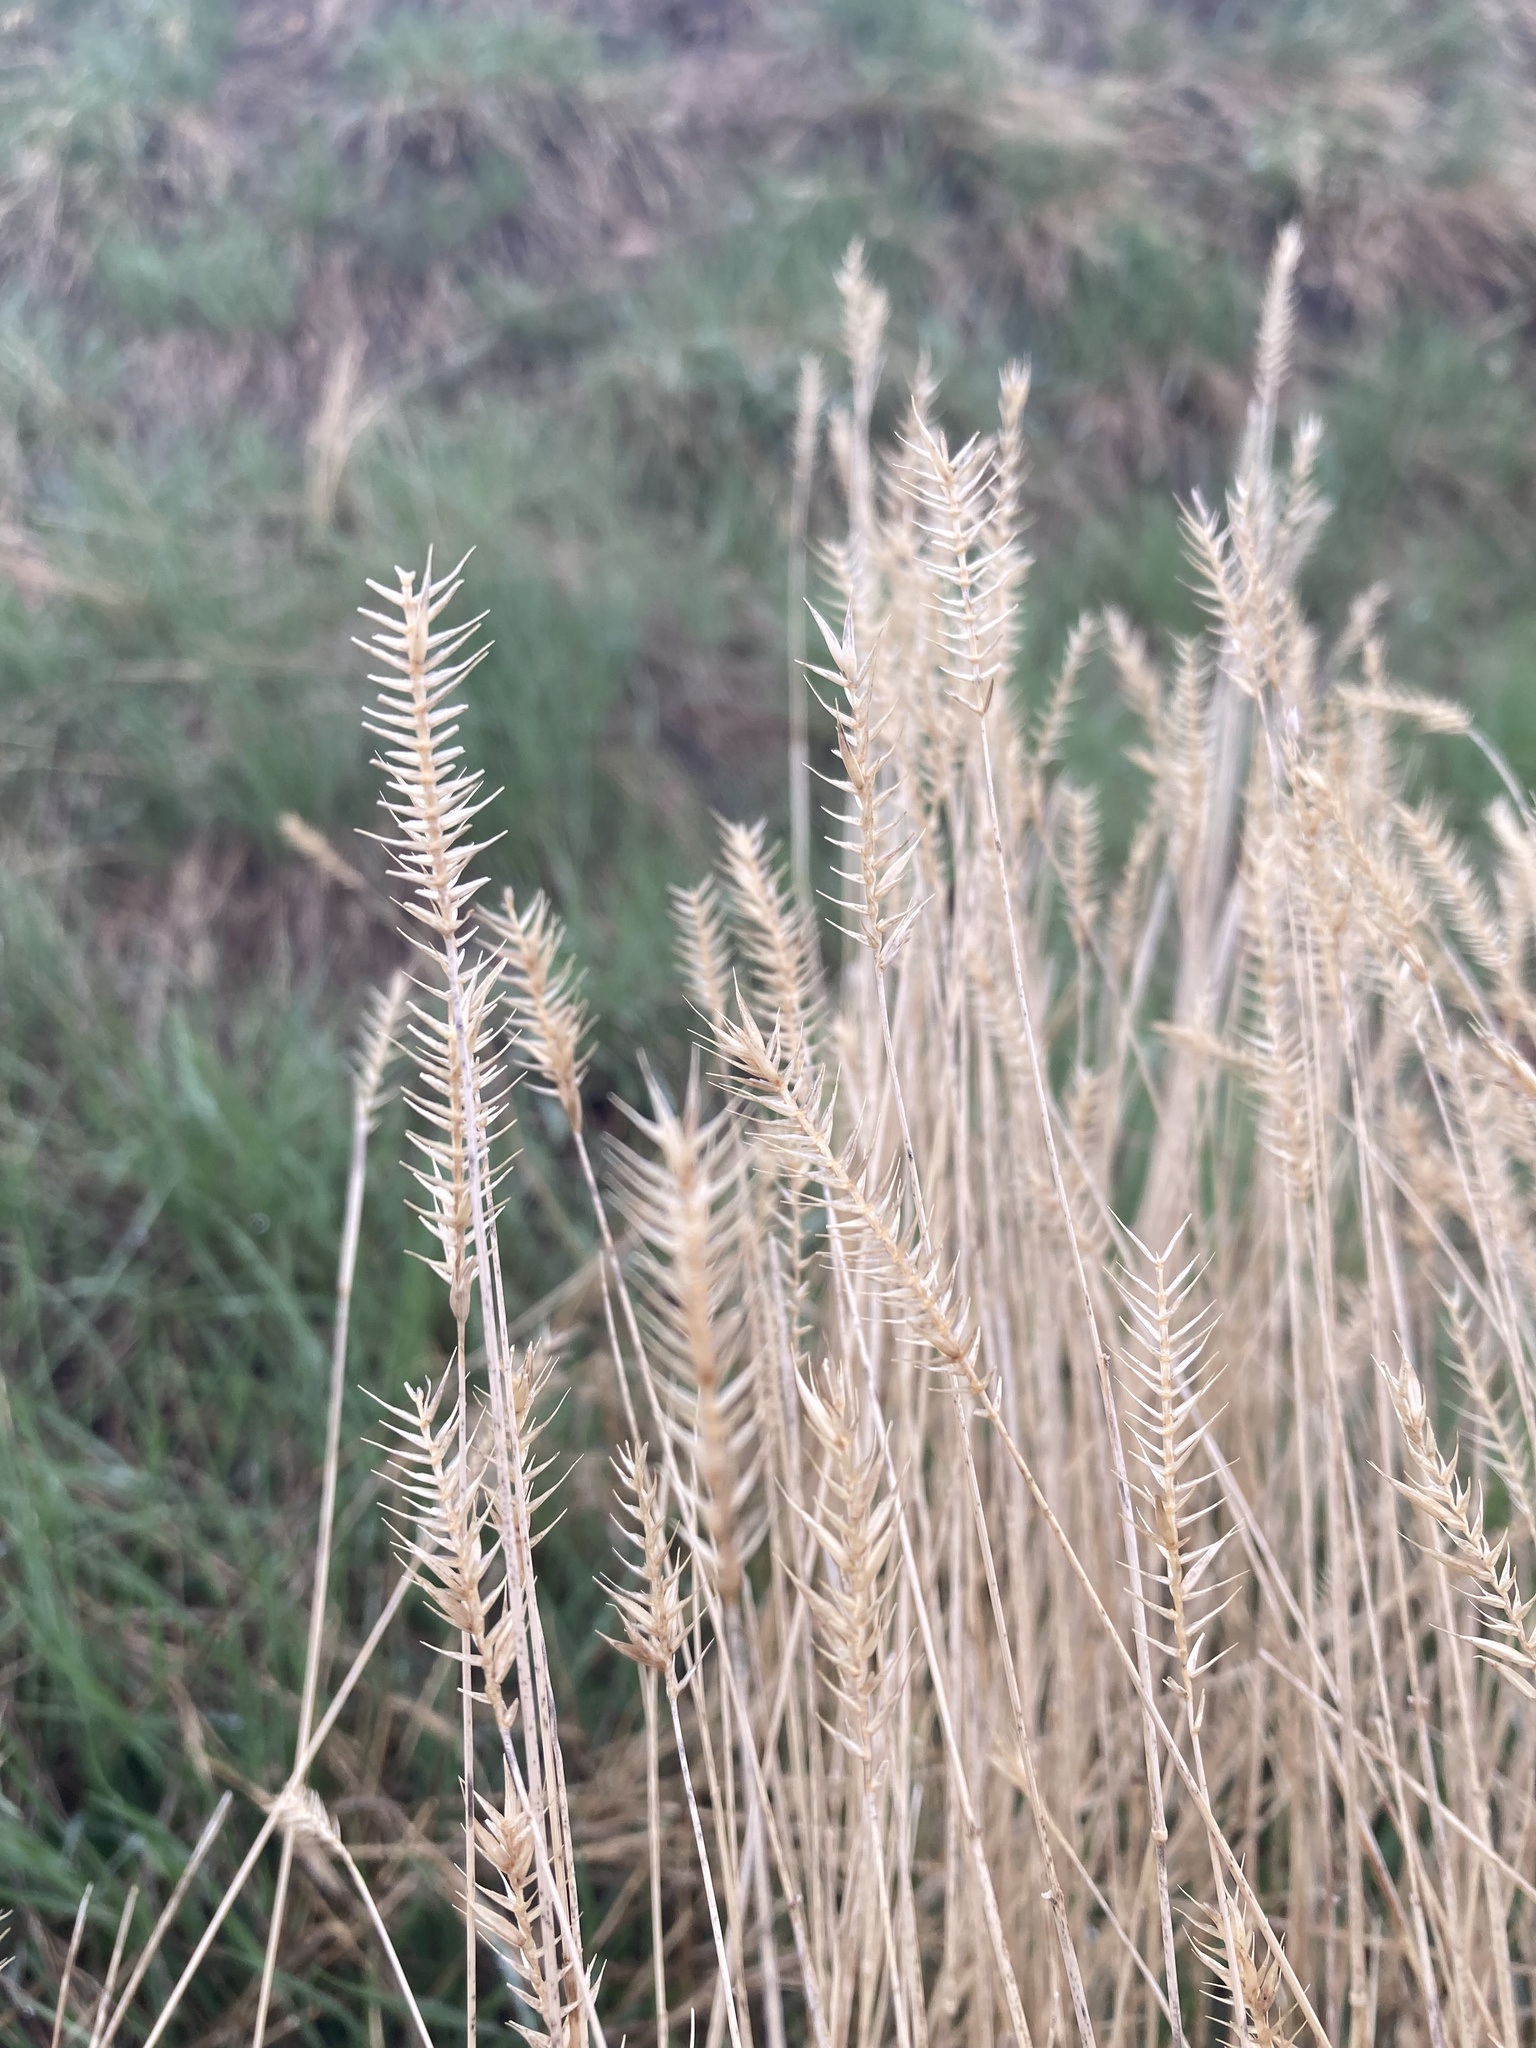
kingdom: Plantae
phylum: Tracheophyta
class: Liliopsida
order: Poales
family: Poaceae
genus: Agropyron
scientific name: Agropyron cristatum
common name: Crested wheatgrass
